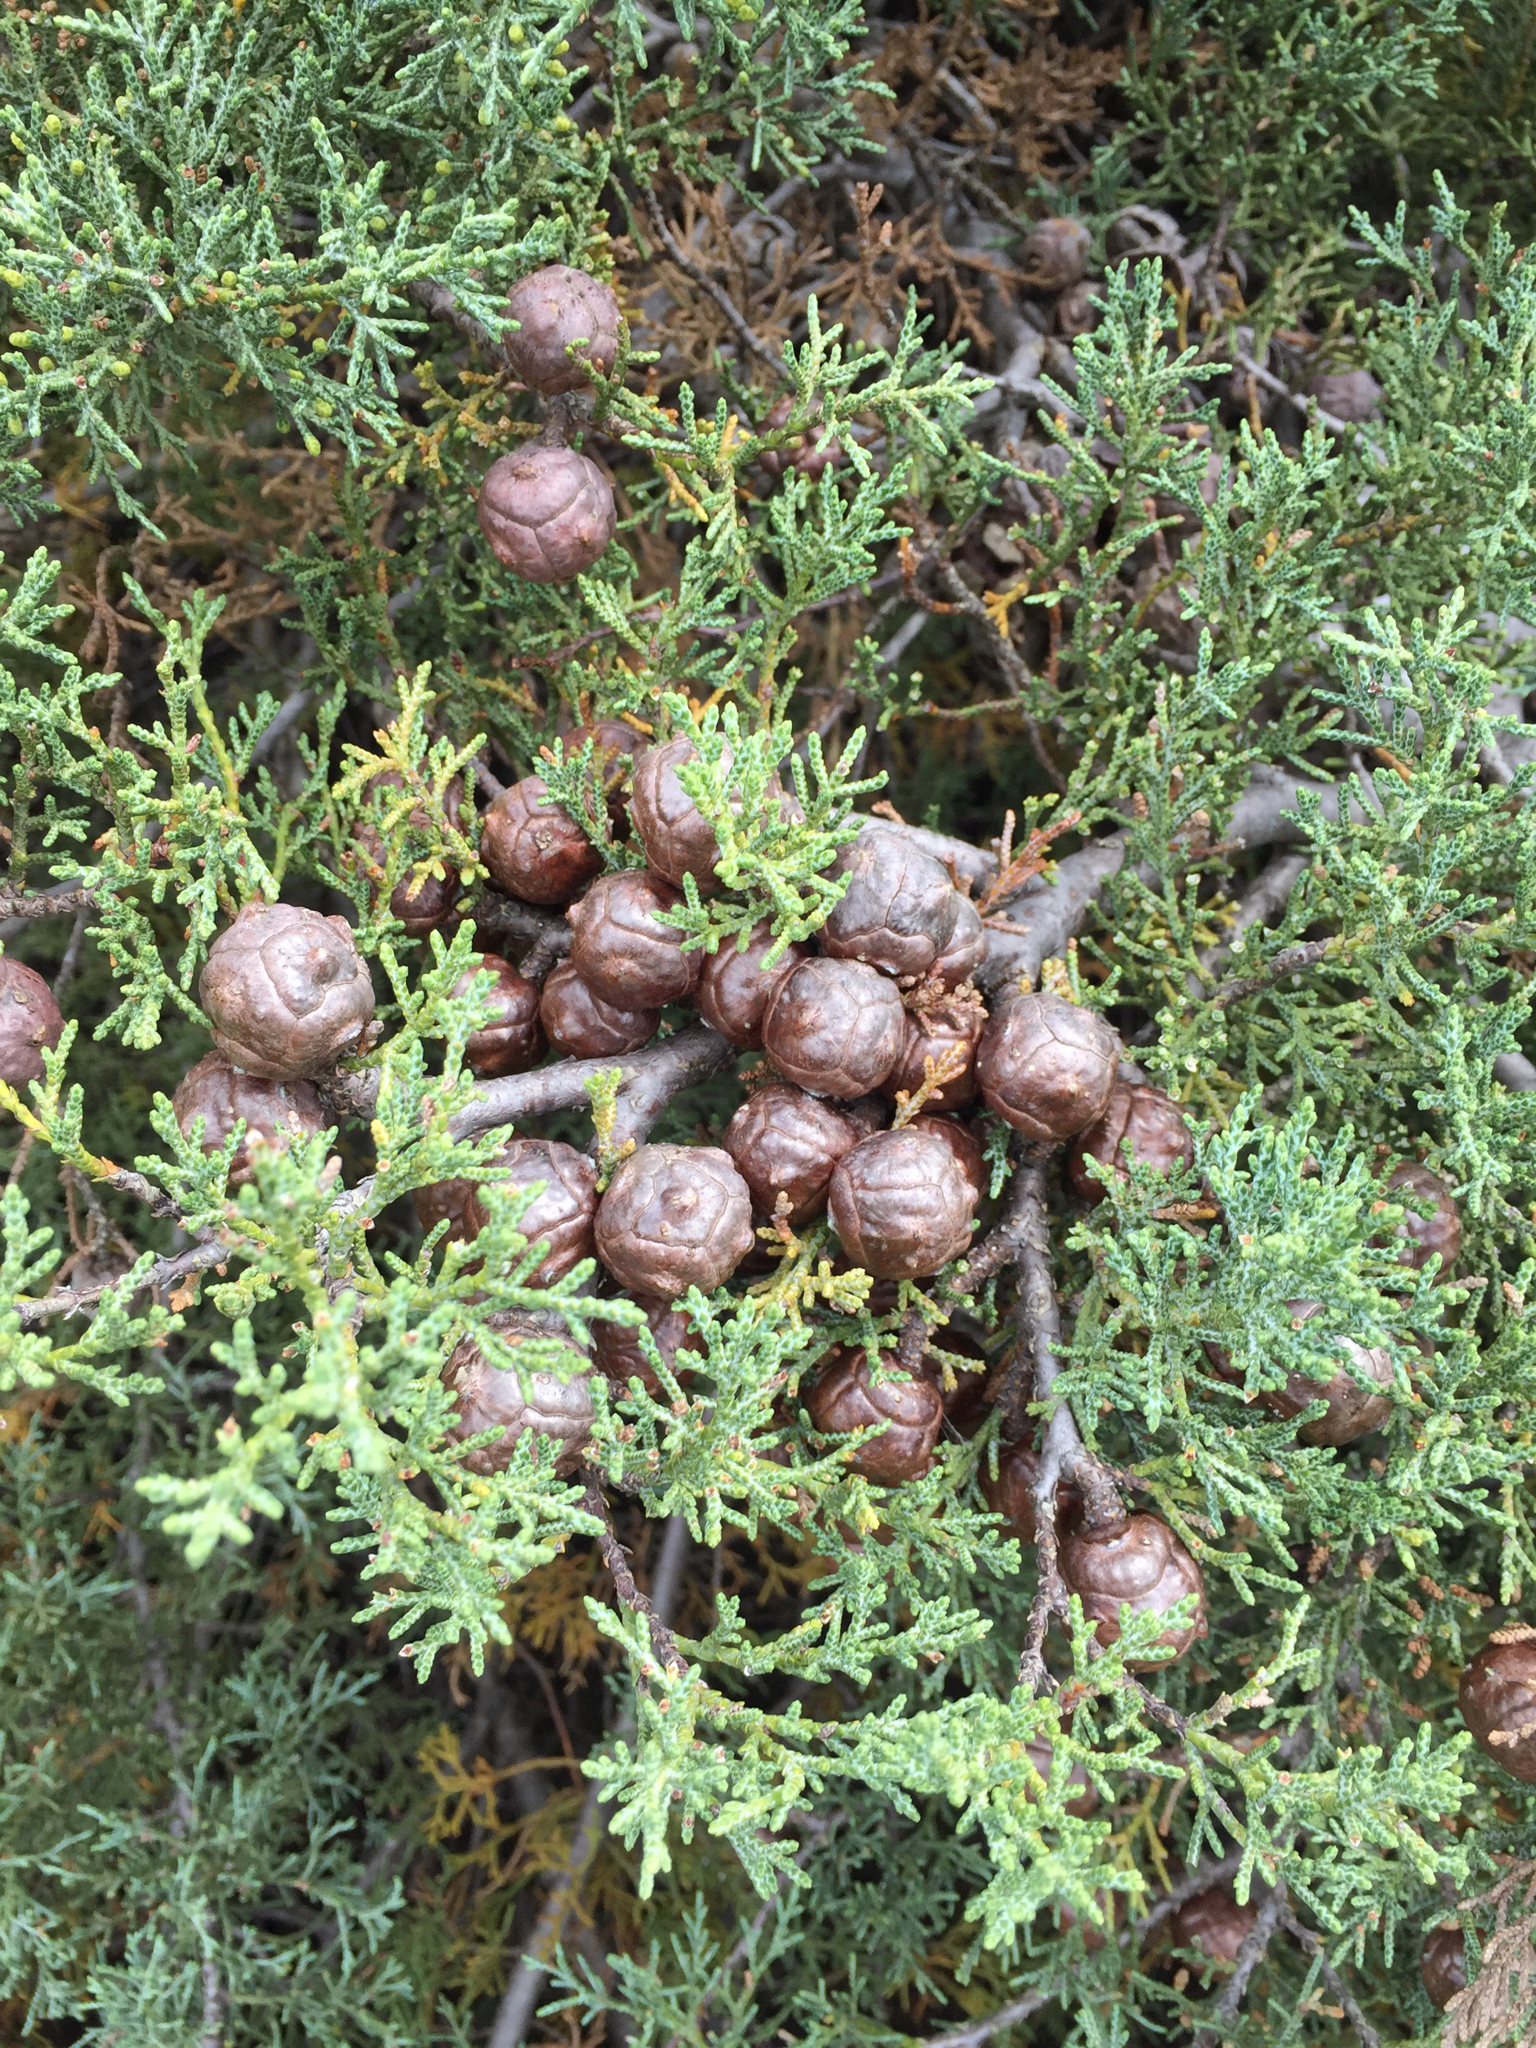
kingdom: Plantae
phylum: Tracheophyta
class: Pinopsida
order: Pinales
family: Cupressaceae
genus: Cupressus
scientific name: Cupressus sargentii
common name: Sargent cypress
